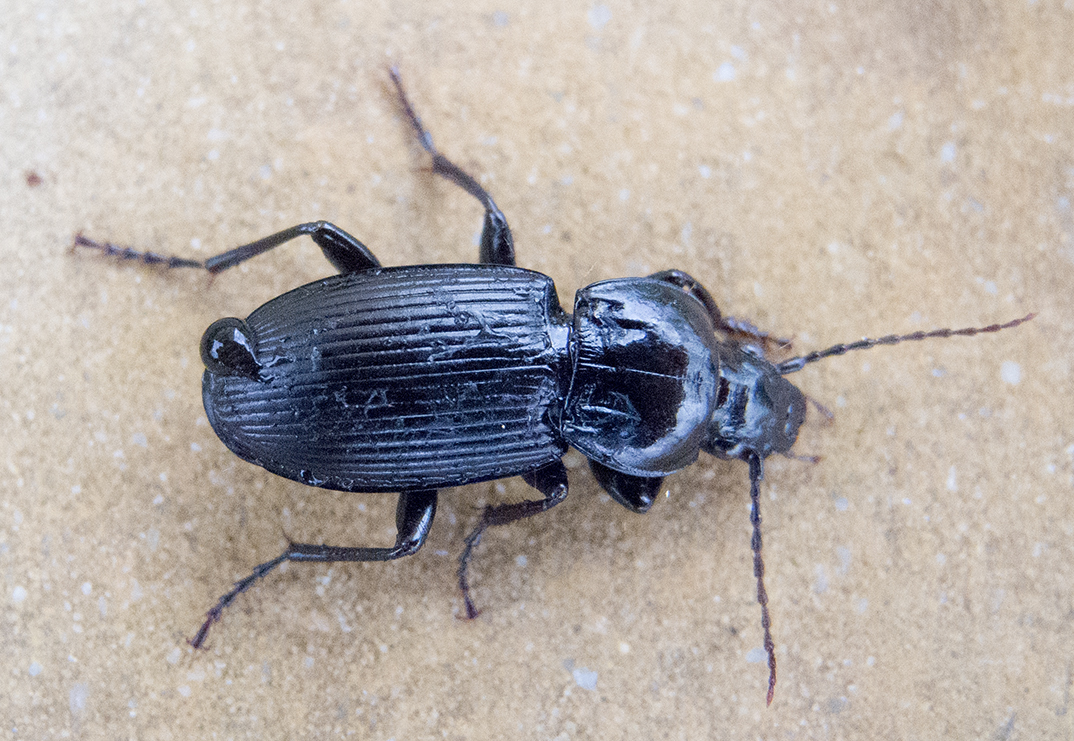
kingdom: Animalia
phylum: Arthropoda
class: Insecta
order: Coleoptera
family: Carabidae
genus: Pterostichus
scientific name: Pterostichus melas
